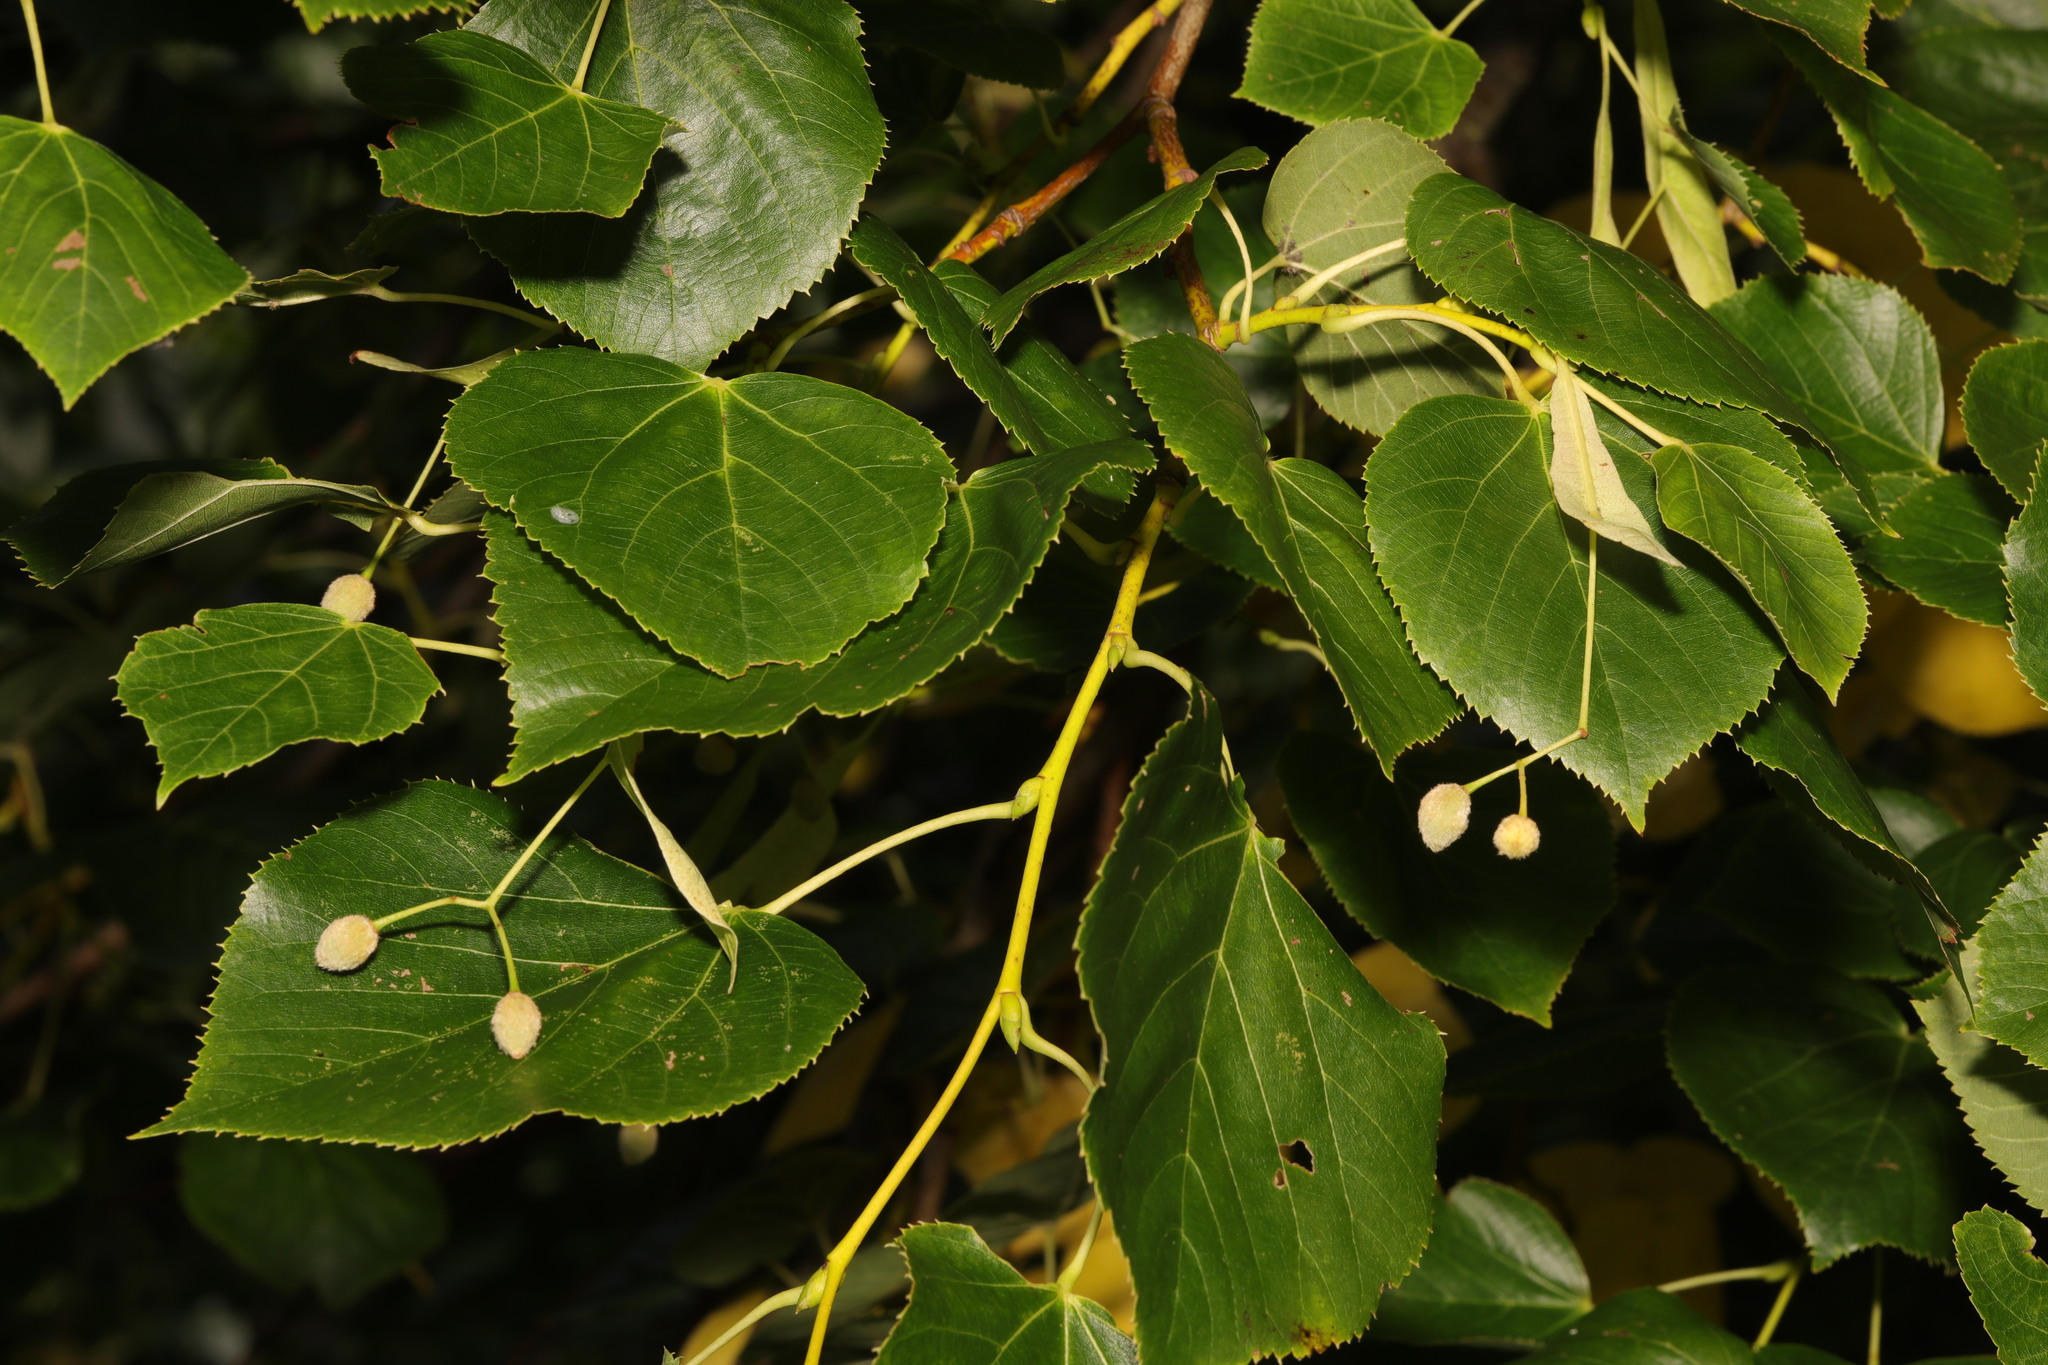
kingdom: Plantae
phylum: Tracheophyta
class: Magnoliopsida
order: Malvales
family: Malvaceae
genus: Tilia
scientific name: Tilia europaea
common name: European linden
